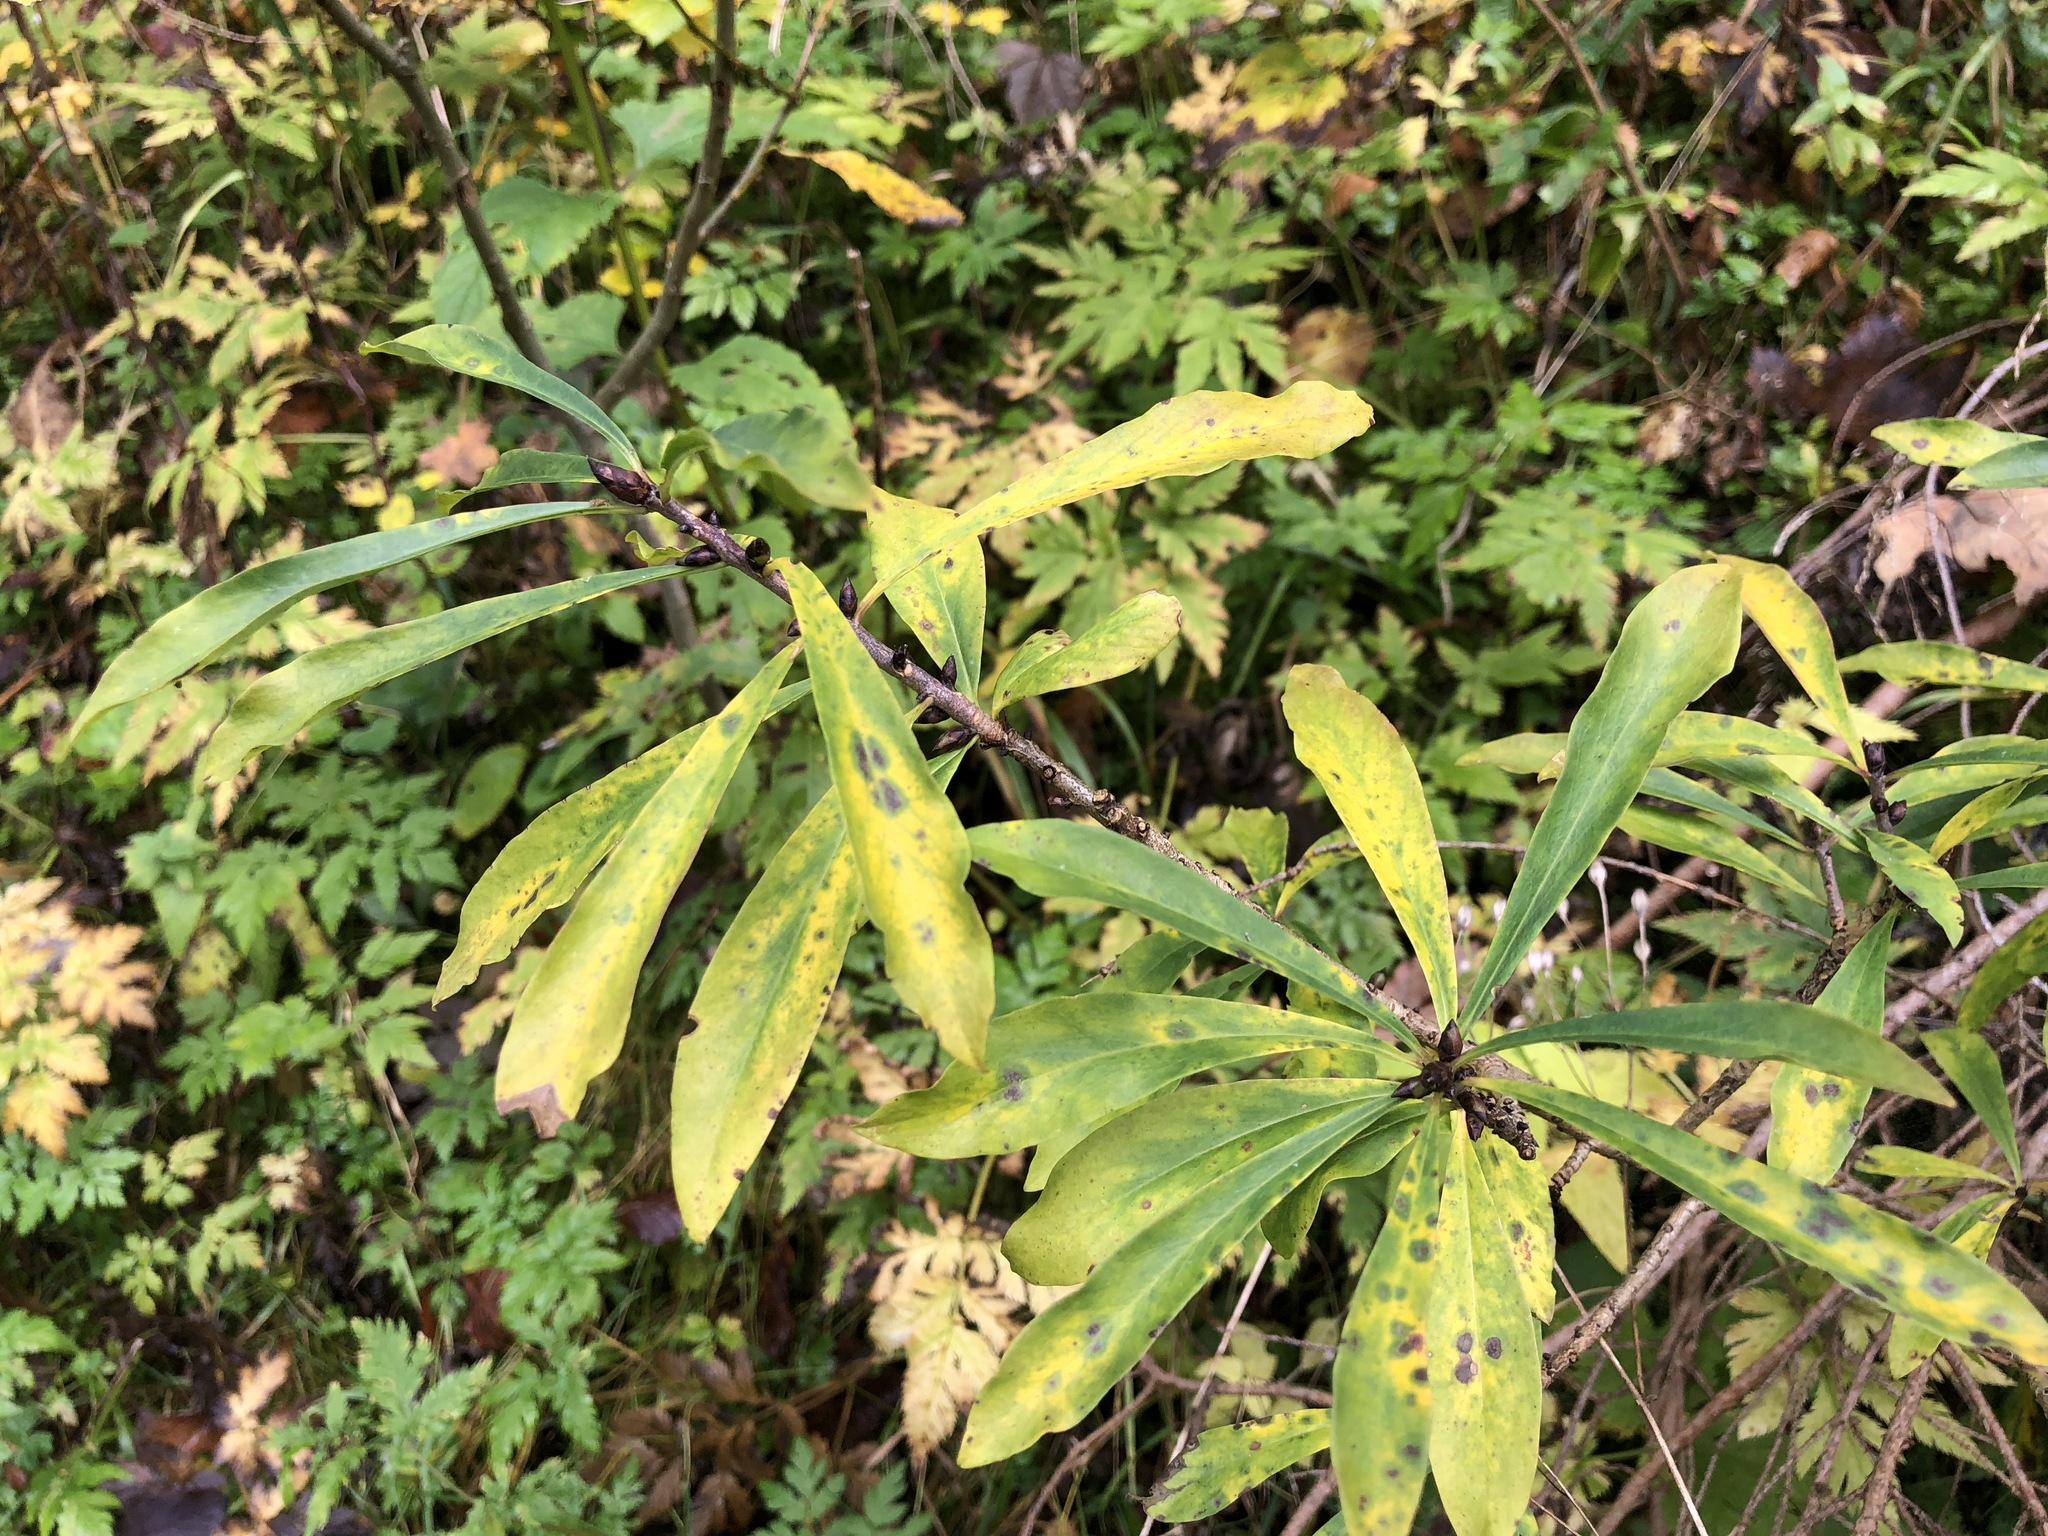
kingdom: Plantae
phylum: Tracheophyta
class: Magnoliopsida
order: Malvales
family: Thymelaeaceae
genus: Daphne
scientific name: Daphne mezereum
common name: Mezereon
